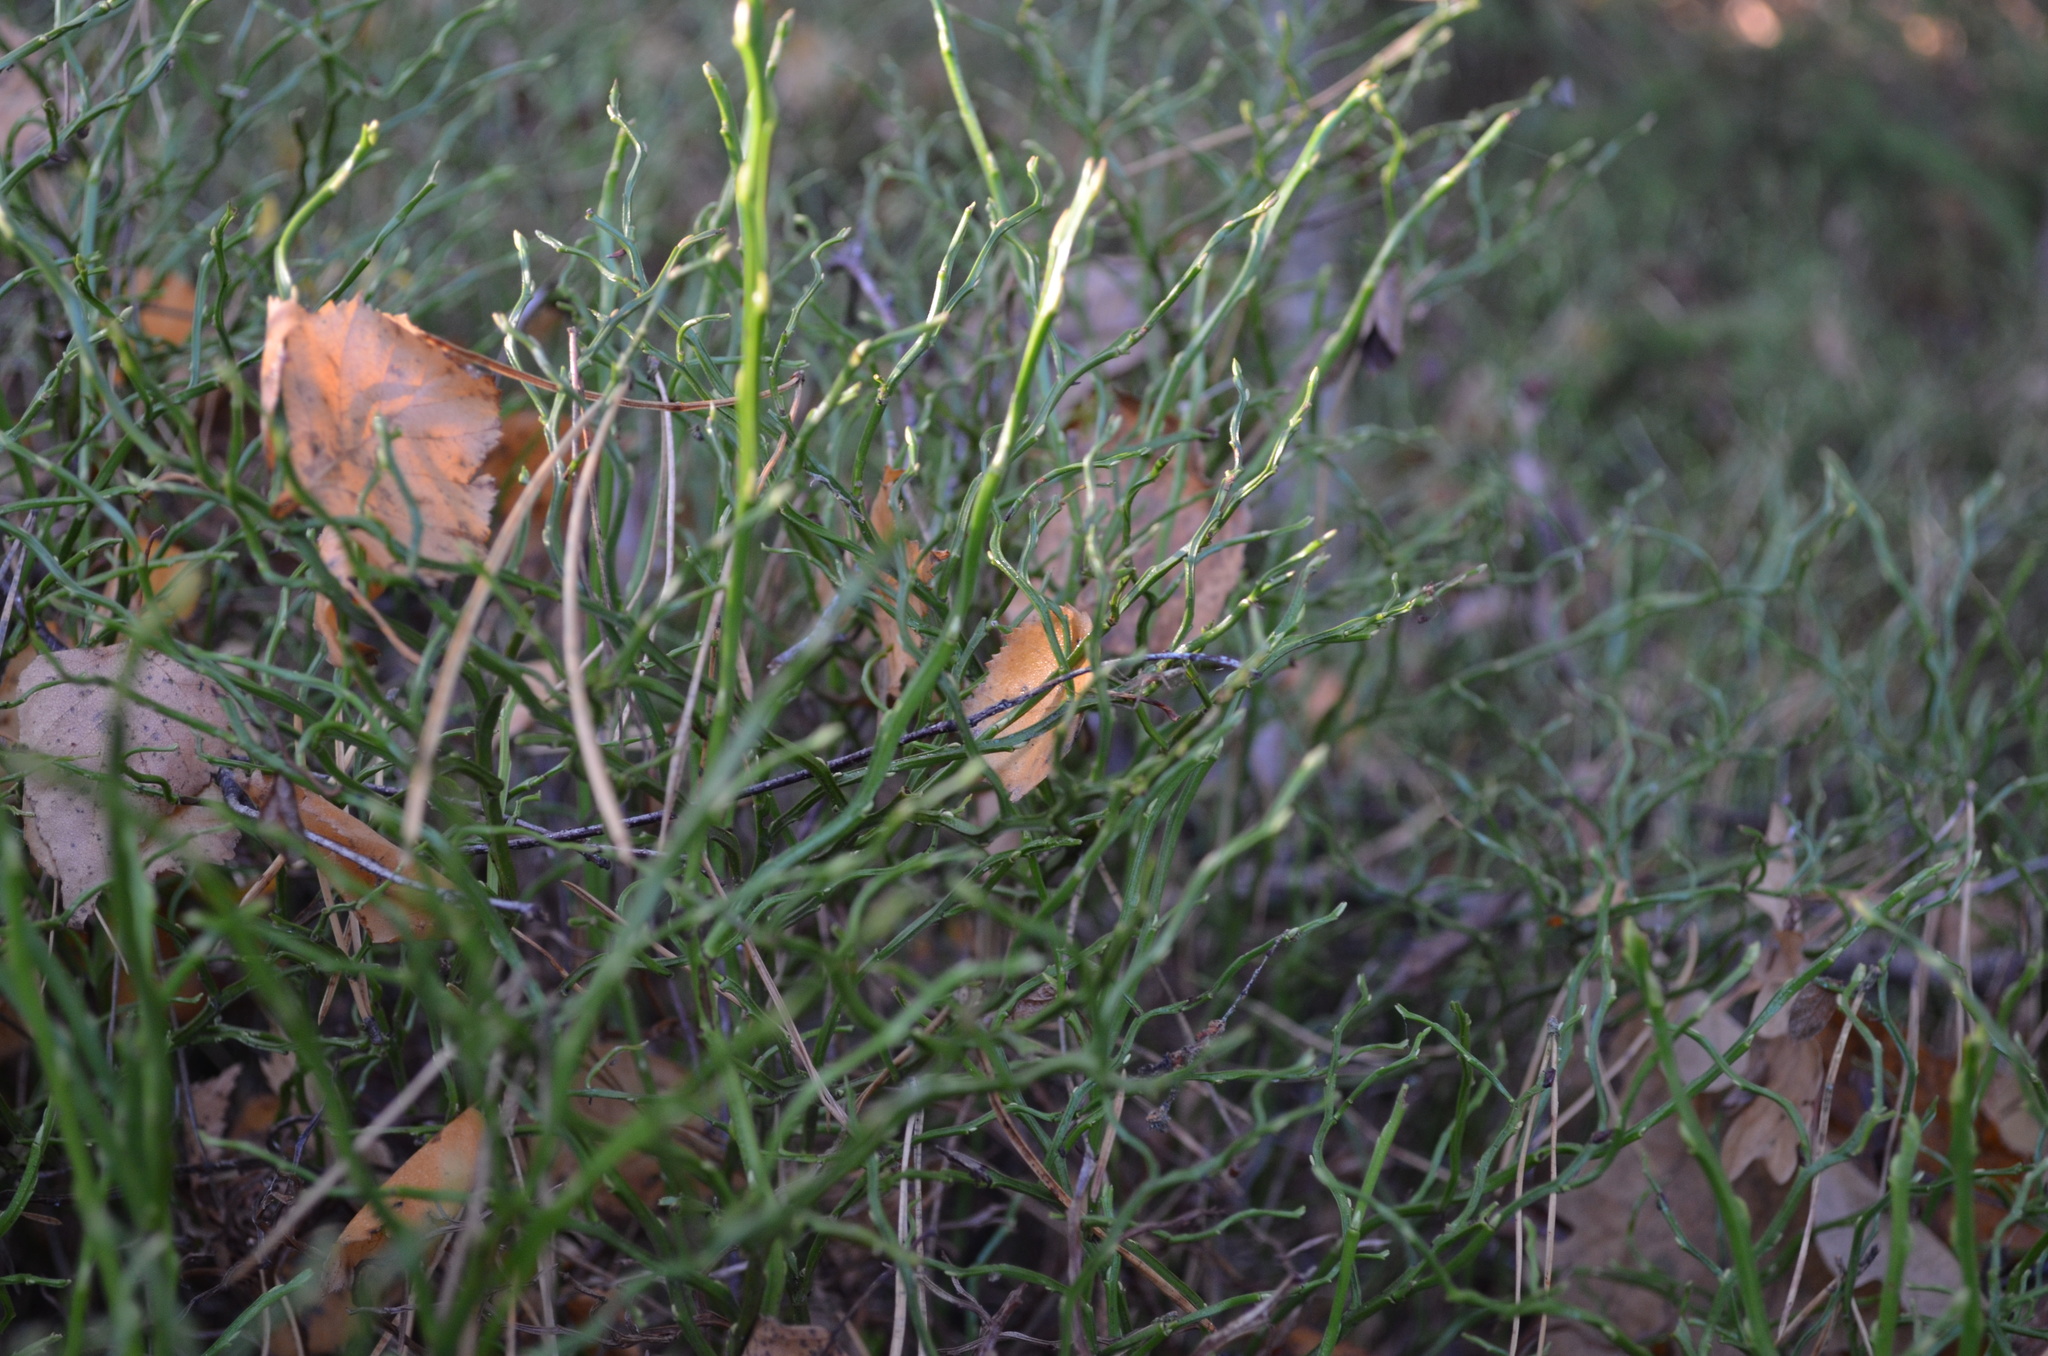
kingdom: Plantae
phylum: Tracheophyta
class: Magnoliopsida
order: Ericales
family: Ericaceae
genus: Vaccinium
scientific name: Vaccinium myrtillus
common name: Bilberry
